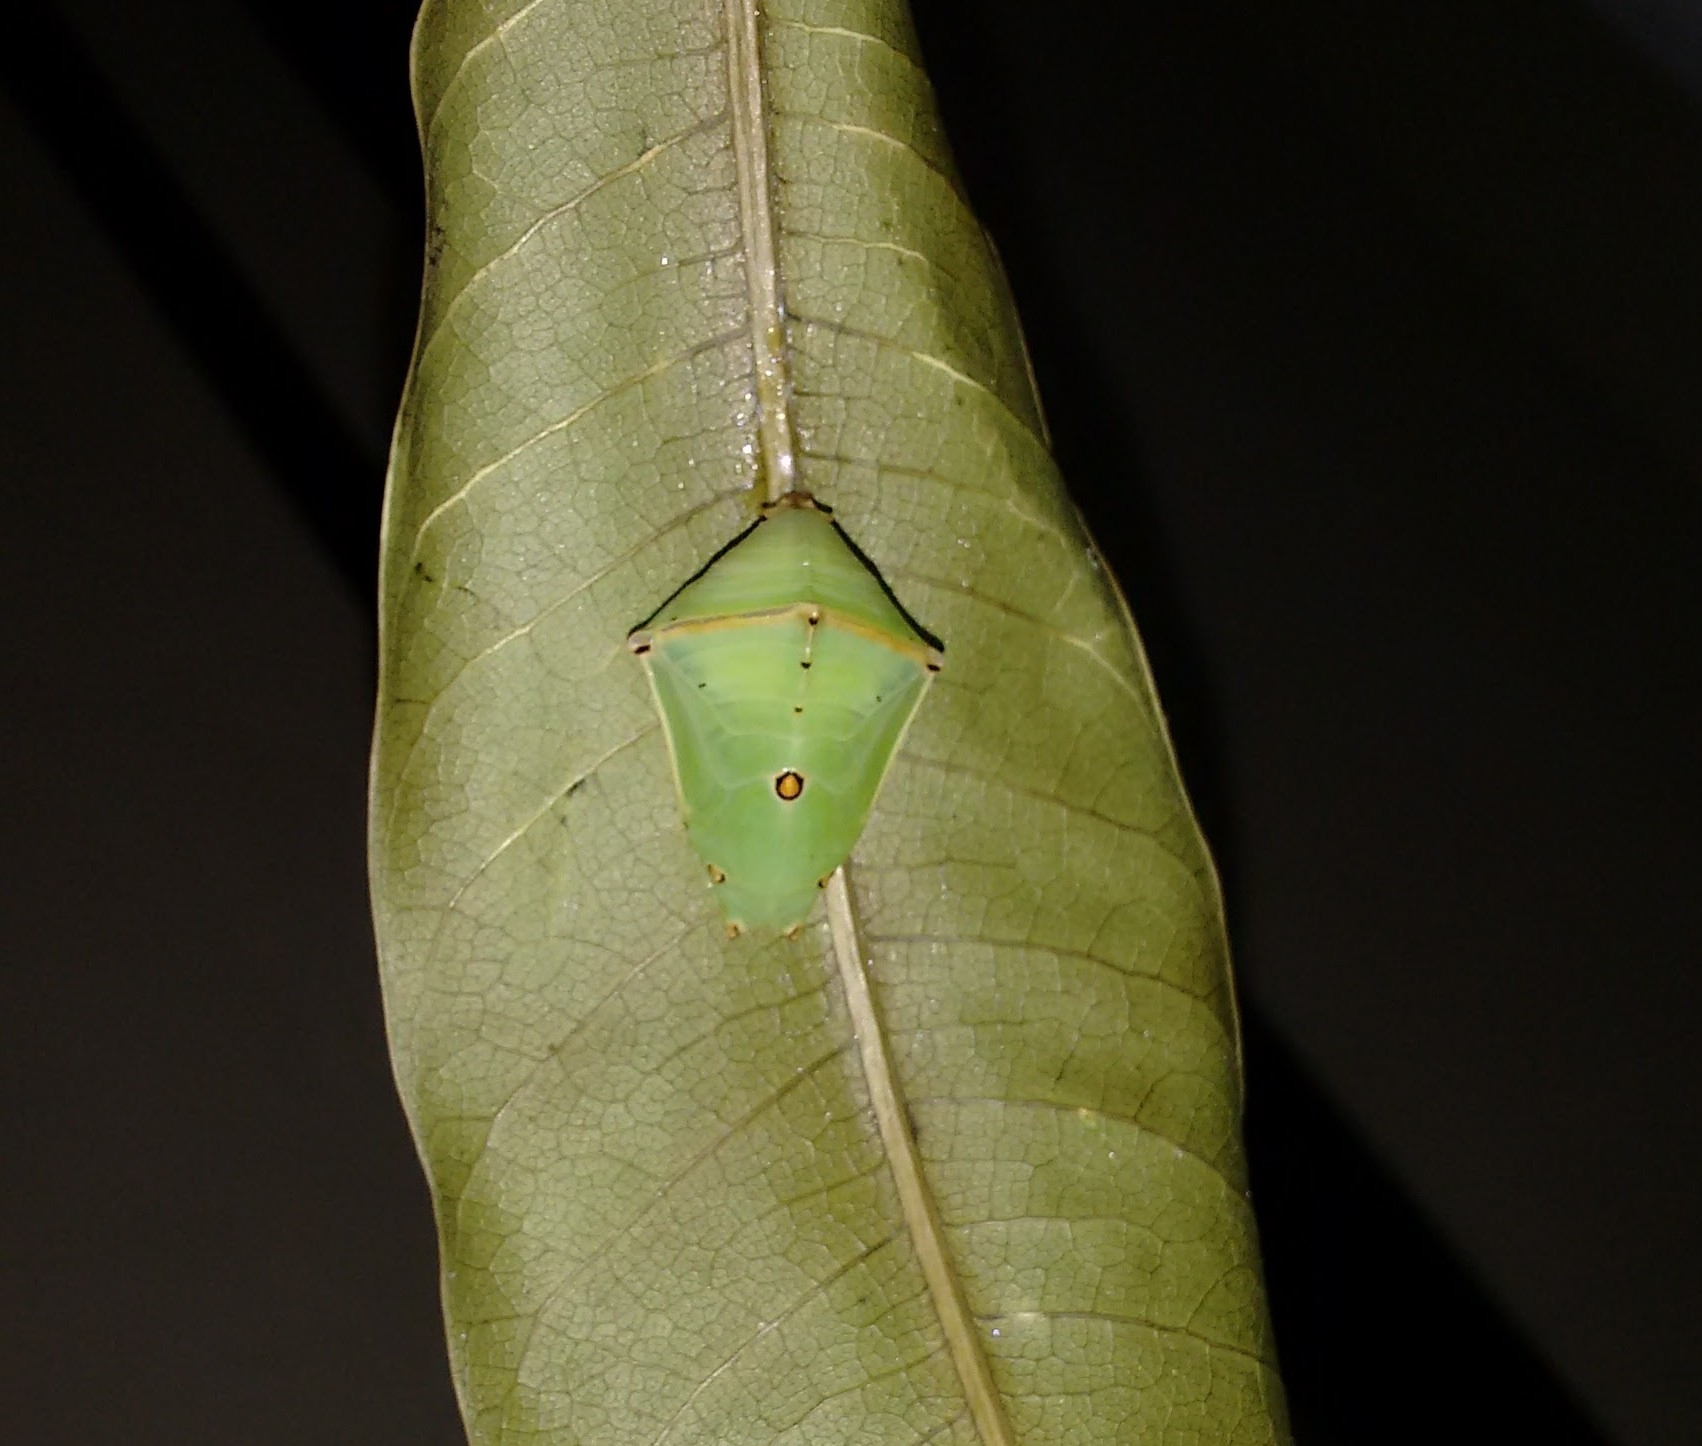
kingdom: Animalia
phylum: Arthropoda
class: Insecta
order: Lepidoptera
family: Nymphalidae
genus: Euthalia
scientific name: Euthalia aconthea
